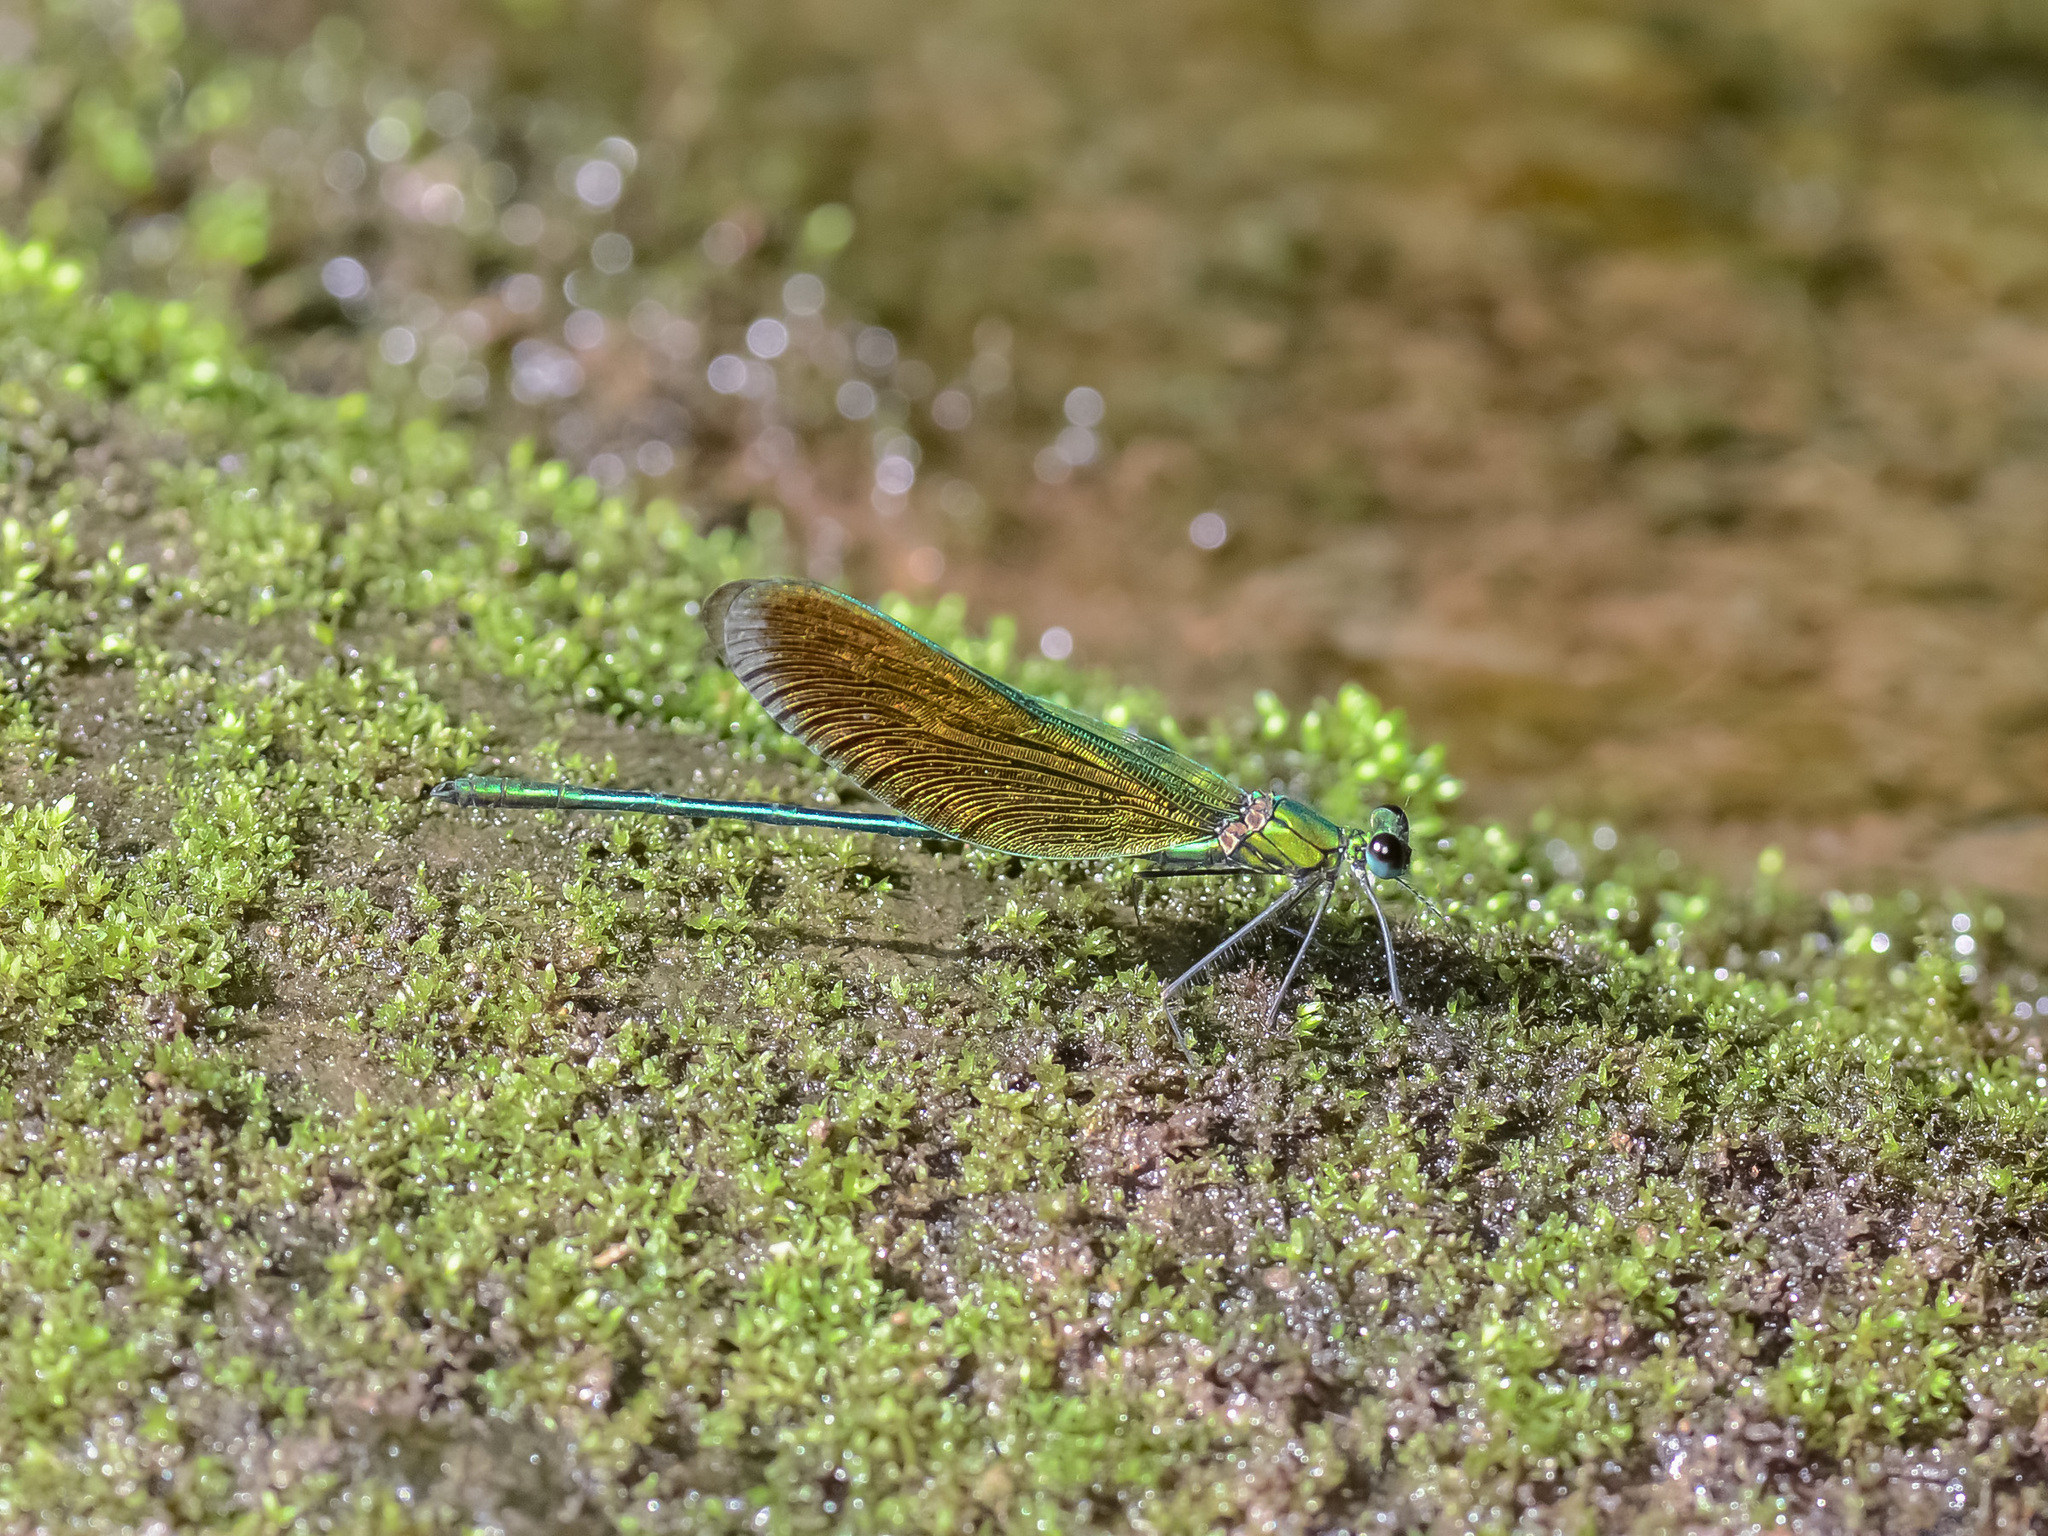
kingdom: Animalia
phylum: Arthropoda
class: Insecta
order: Odonata
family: Calopterygidae
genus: Neurobasis
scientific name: Neurobasis luzoniensis
